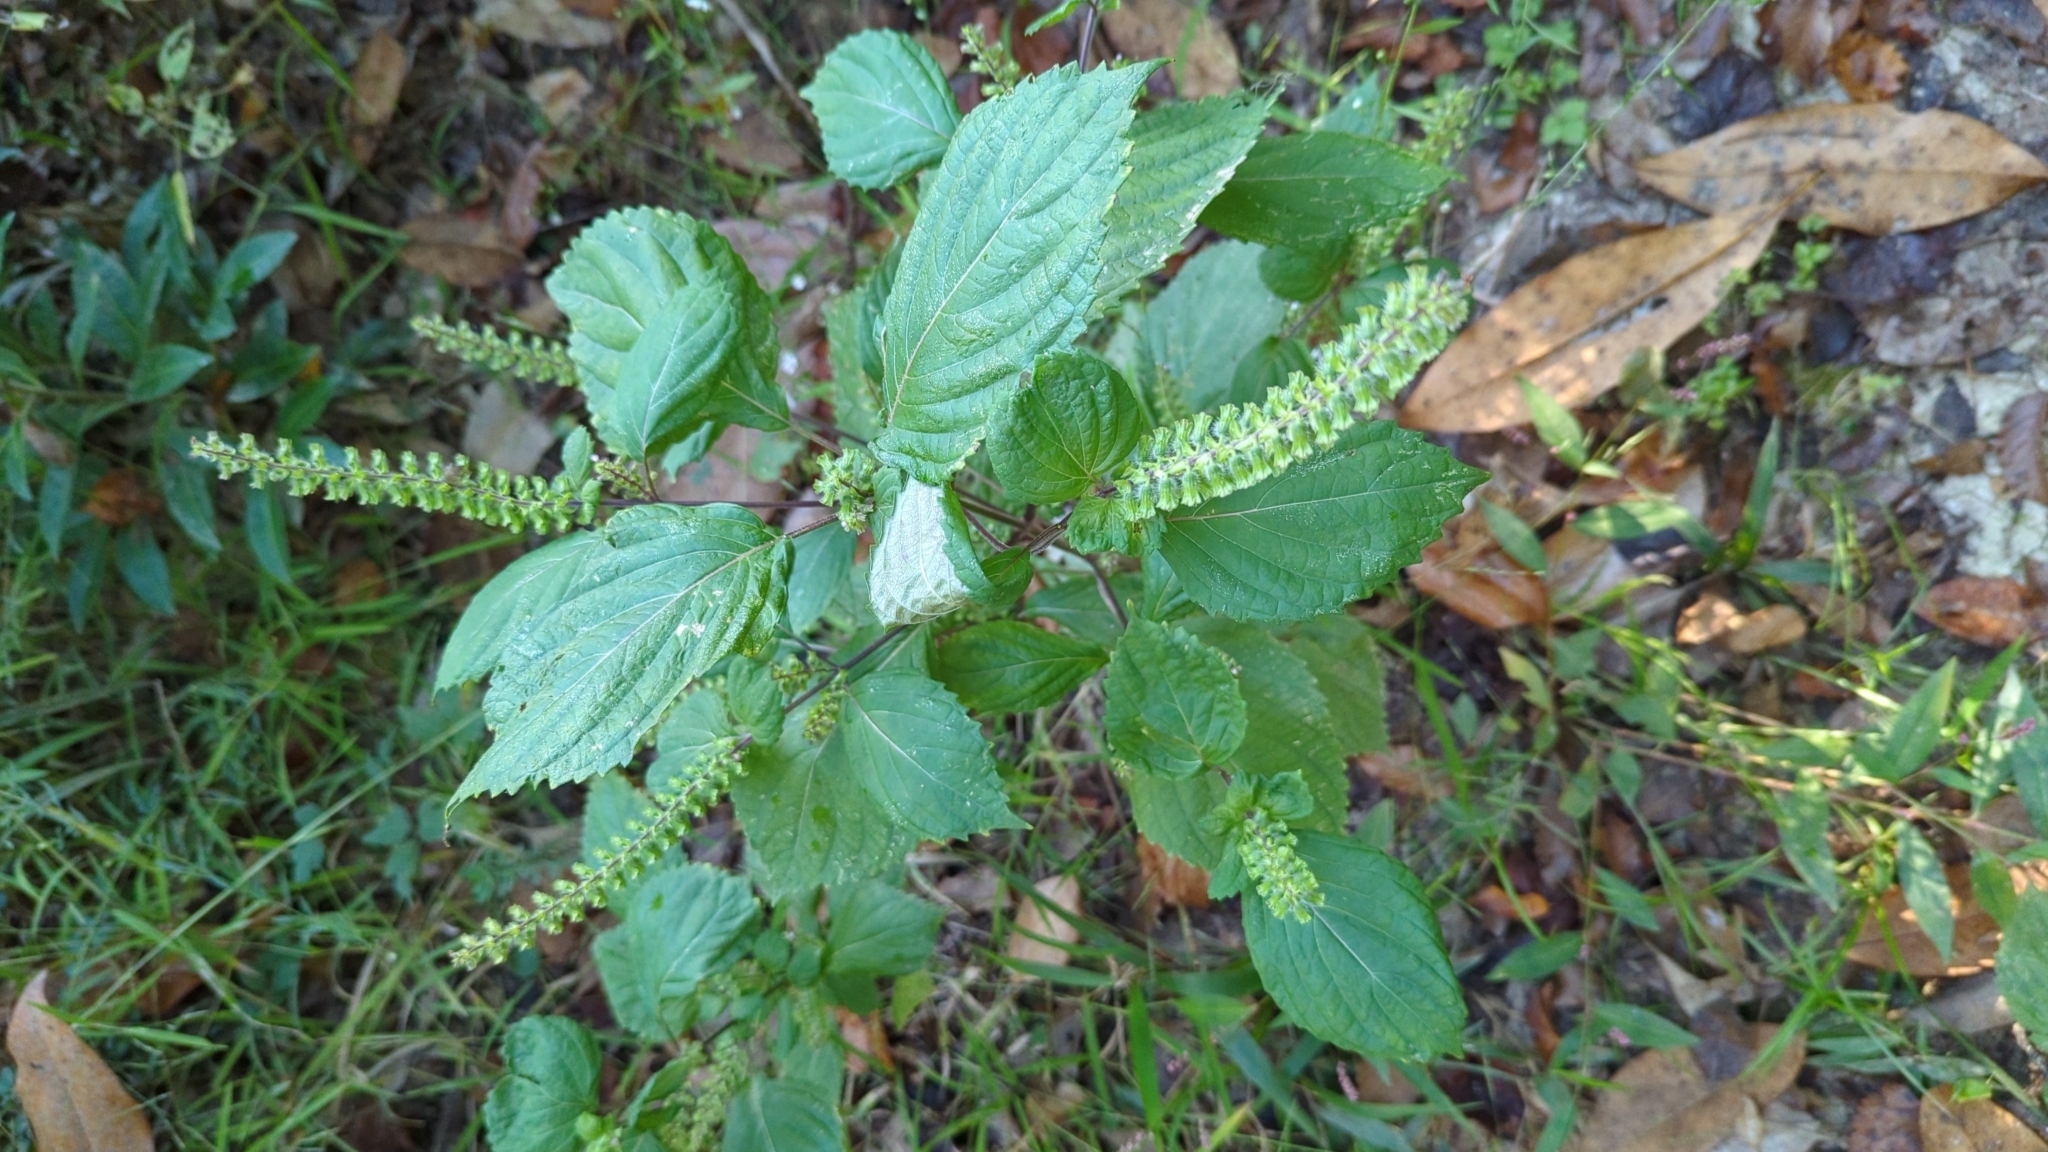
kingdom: Plantae
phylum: Tracheophyta
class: Magnoliopsida
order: Lamiales
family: Lamiaceae
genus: Perilla
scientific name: Perilla frutescens
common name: Perilla
